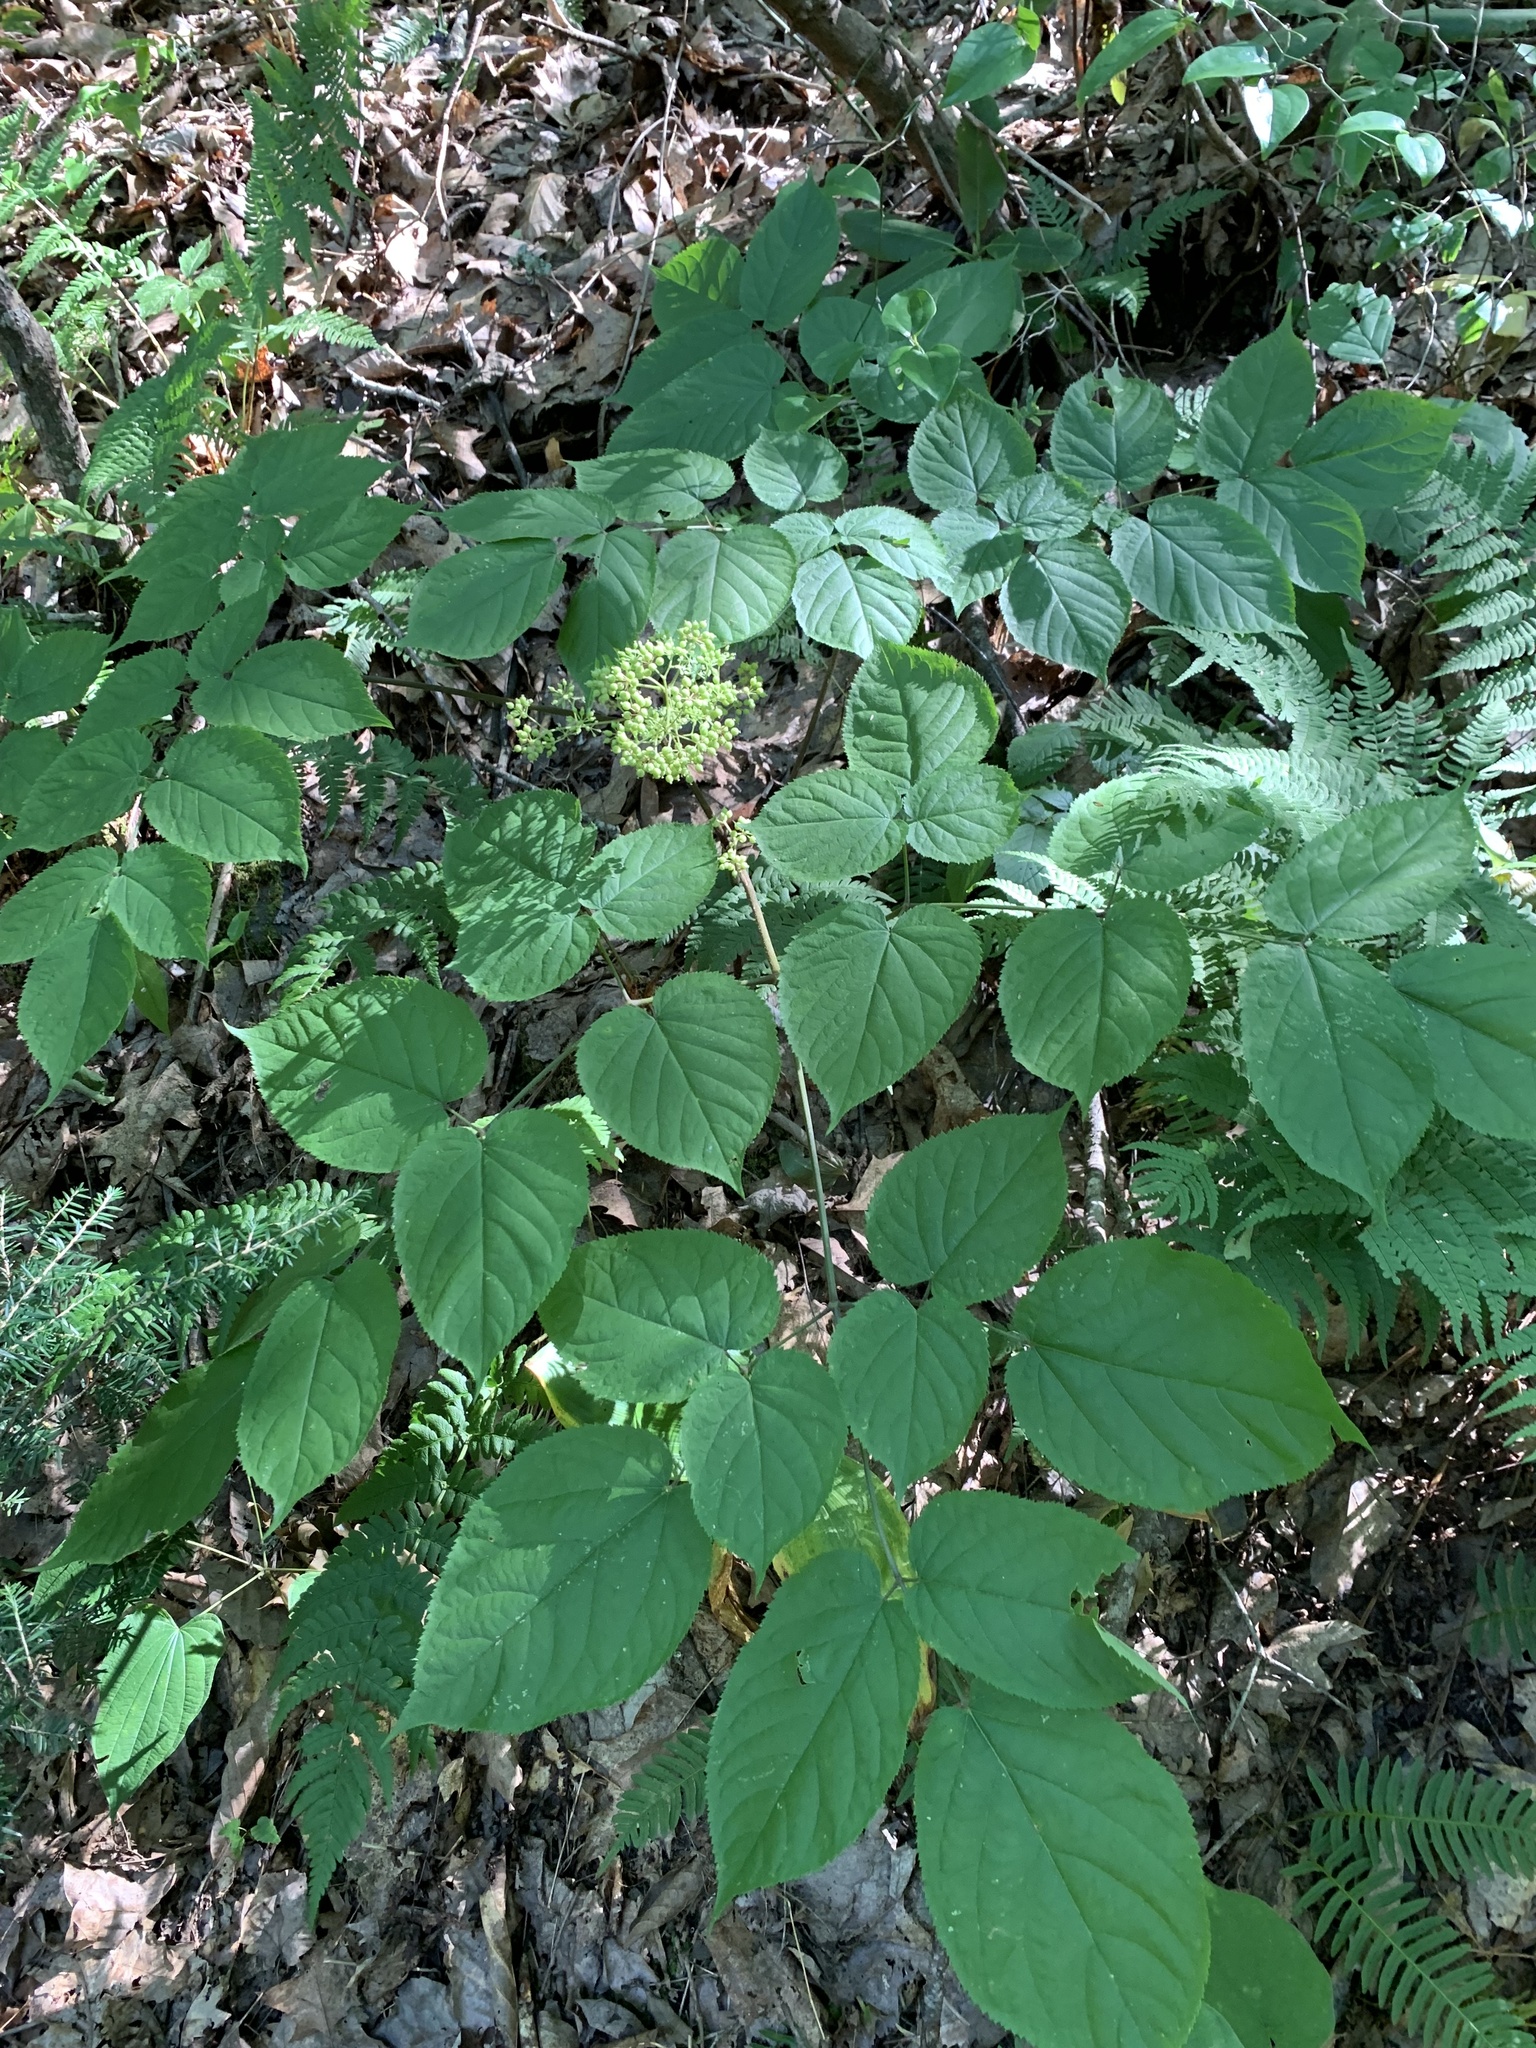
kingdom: Plantae
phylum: Tracheophyta
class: Magnoliopsida
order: Apiales
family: Araliaceae
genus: Aralia
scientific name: Aralia racemosa
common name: American-spikenard
